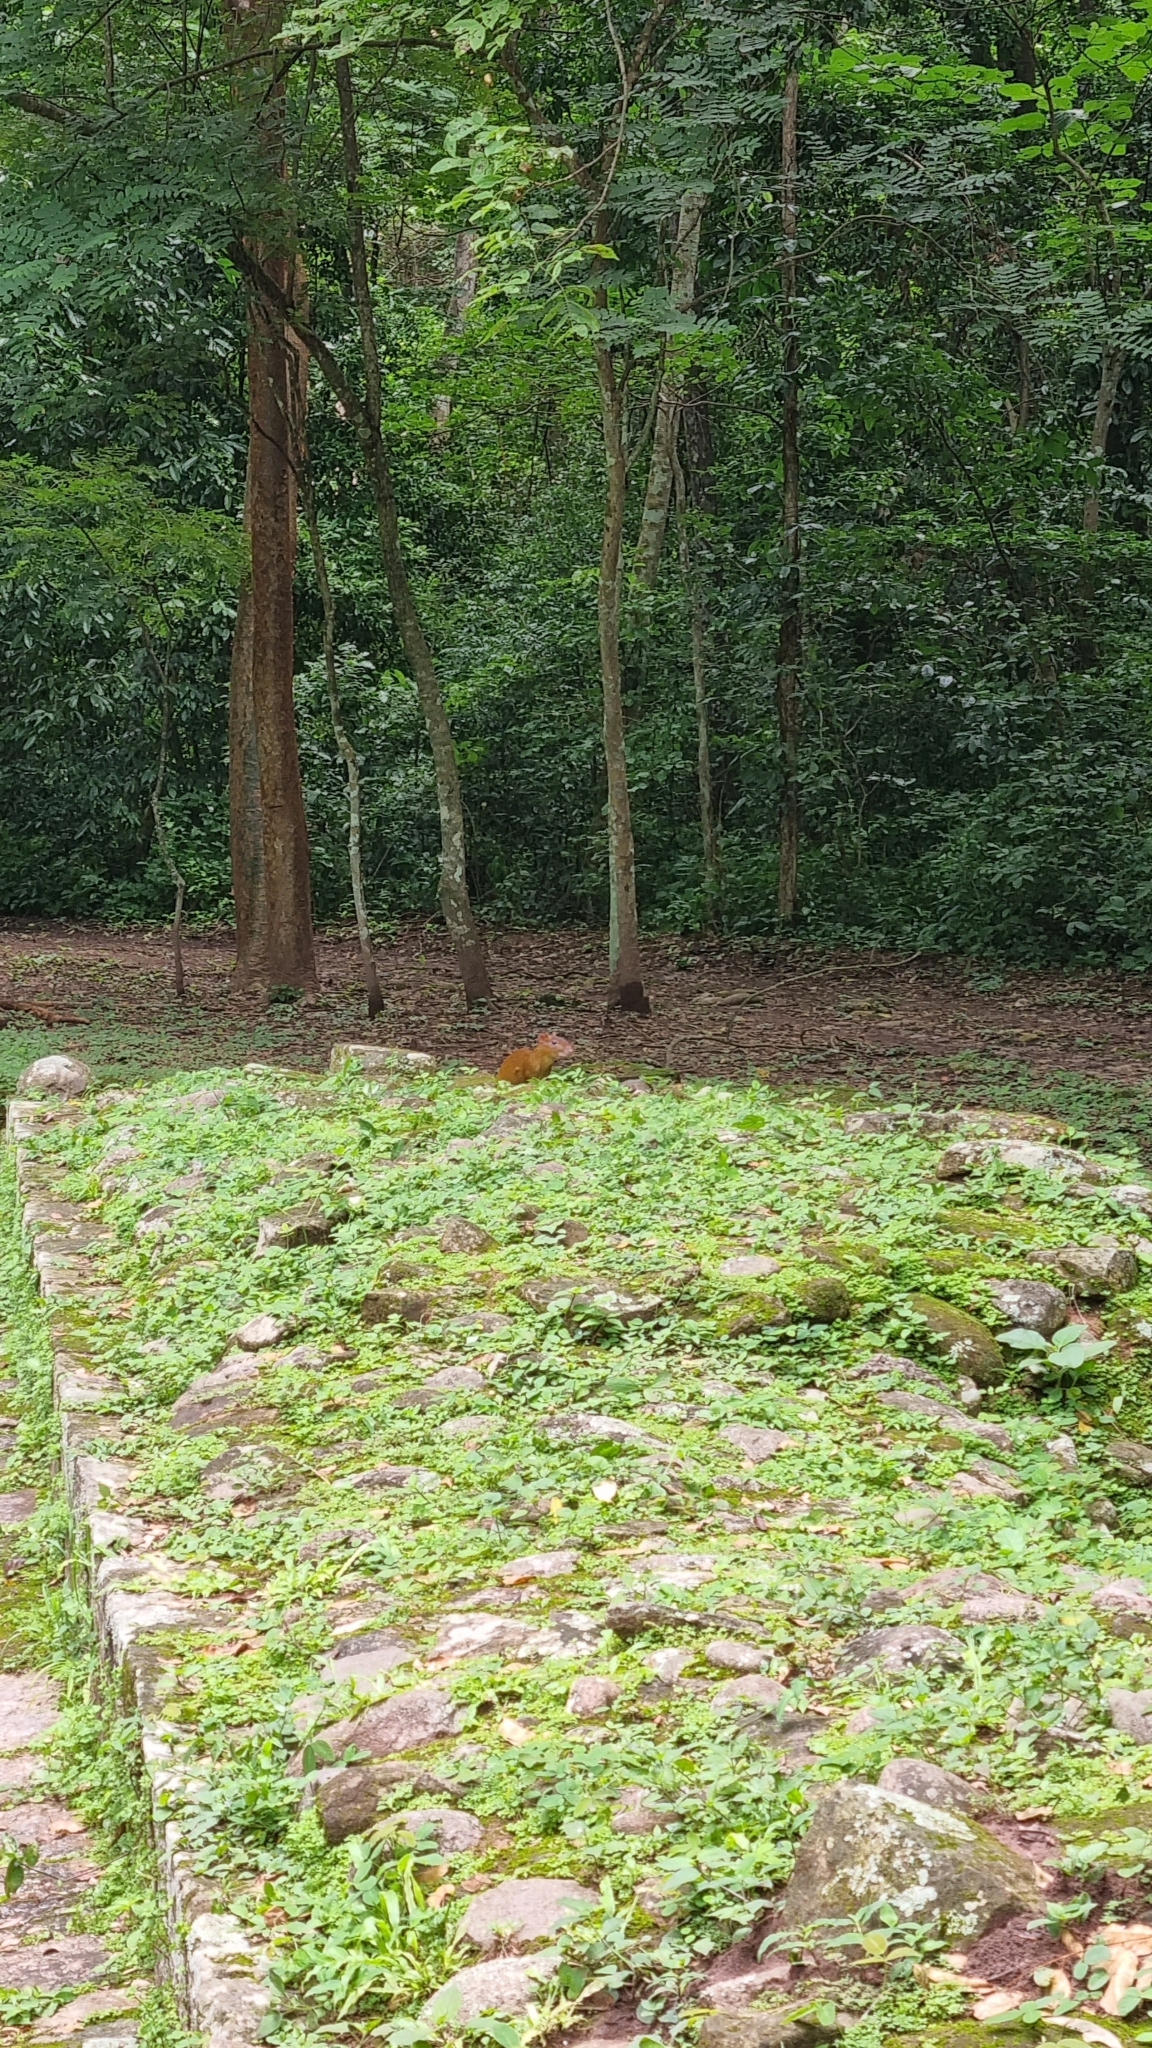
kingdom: Animalia
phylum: Chordata
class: Mammalia
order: Rodentia
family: Dasyproctidae
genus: Dasyprocta
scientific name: Dasyprocta punctata
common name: Central american agouti
